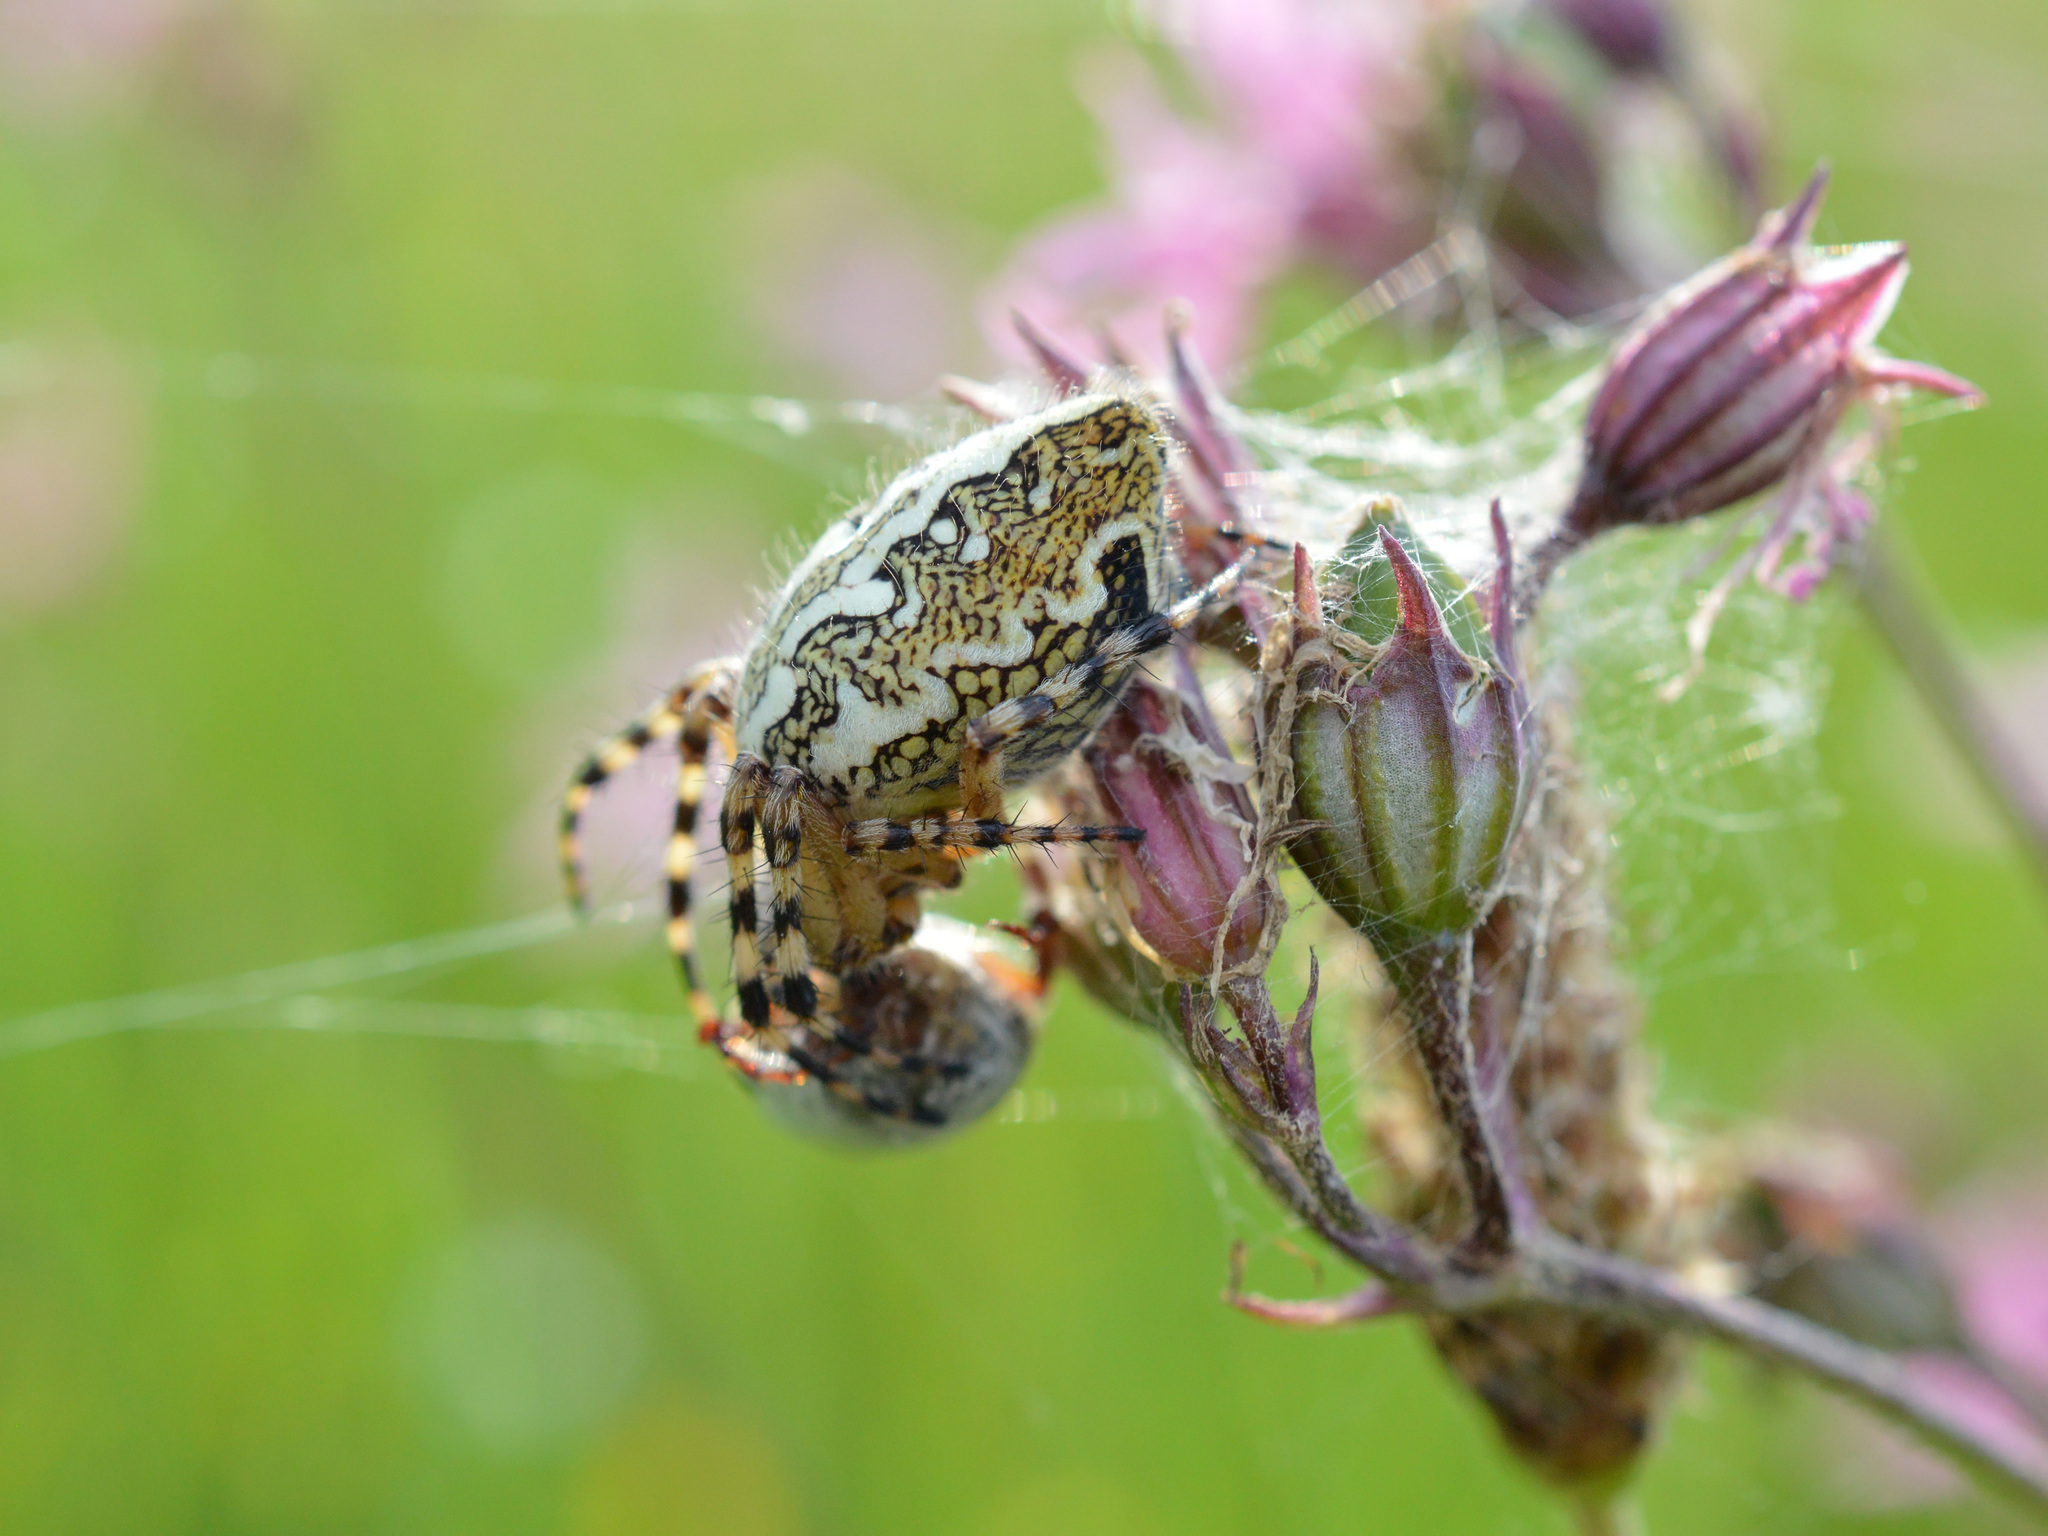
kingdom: Animalia
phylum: Arthropoda
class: Arachnida
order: Araneae
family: Araneidae
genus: Aculepeira
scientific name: Aculepeira ceropegia
